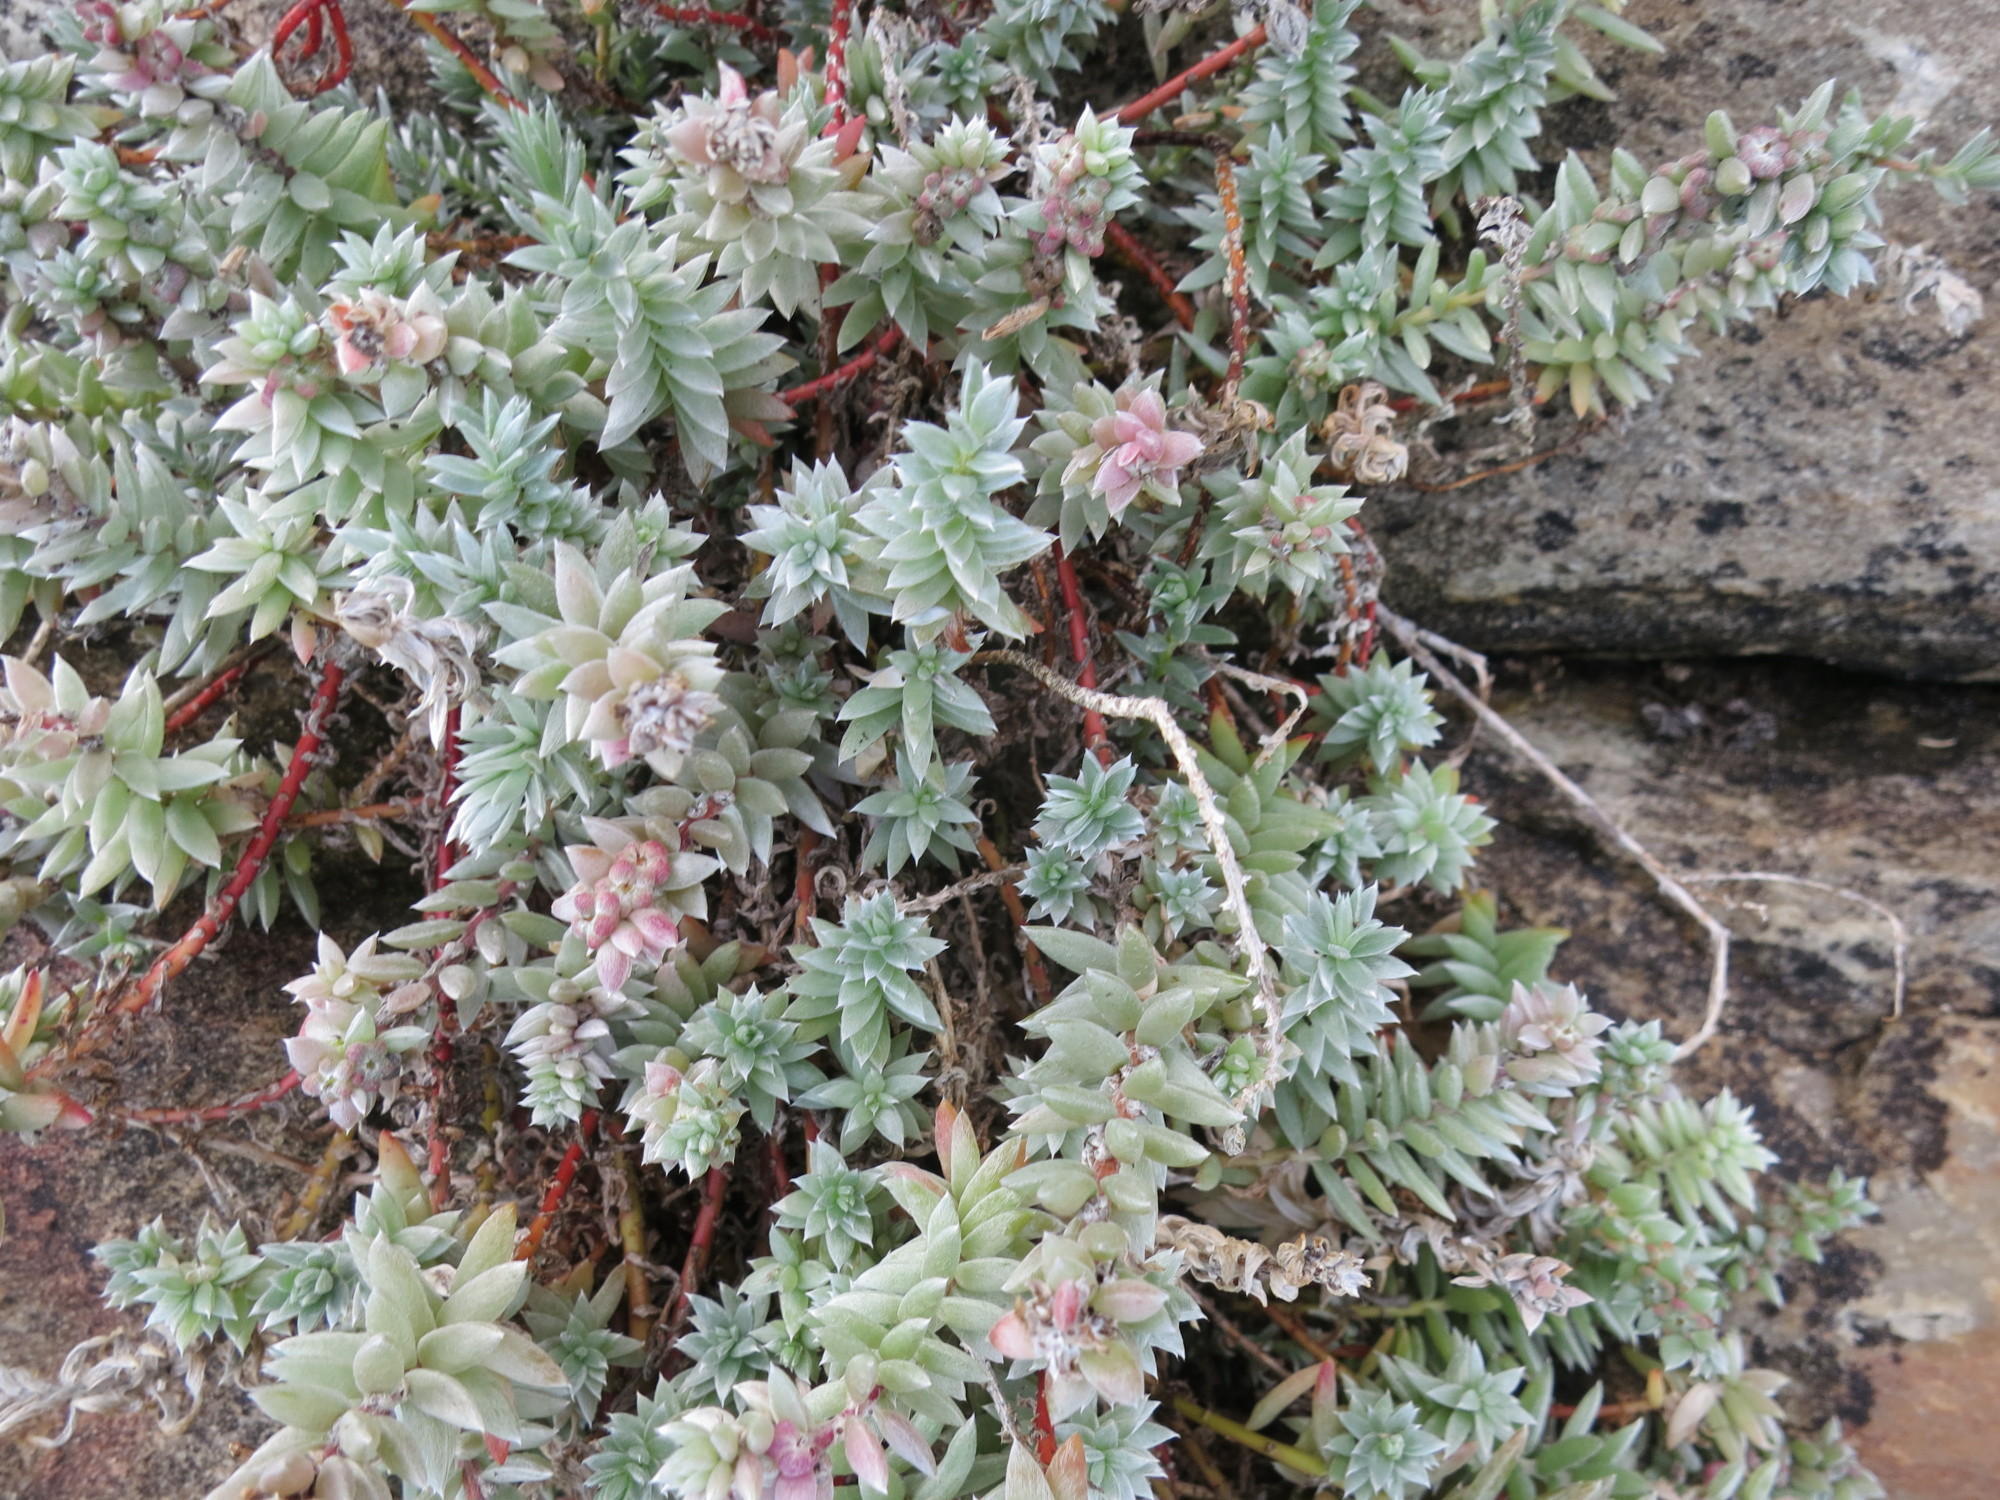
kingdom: Plantae
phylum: Tracheophyta
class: Magnoliopsida
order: Caryophyllales
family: Amaranthaceae
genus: Chenolea
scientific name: Chenolea diffusa
